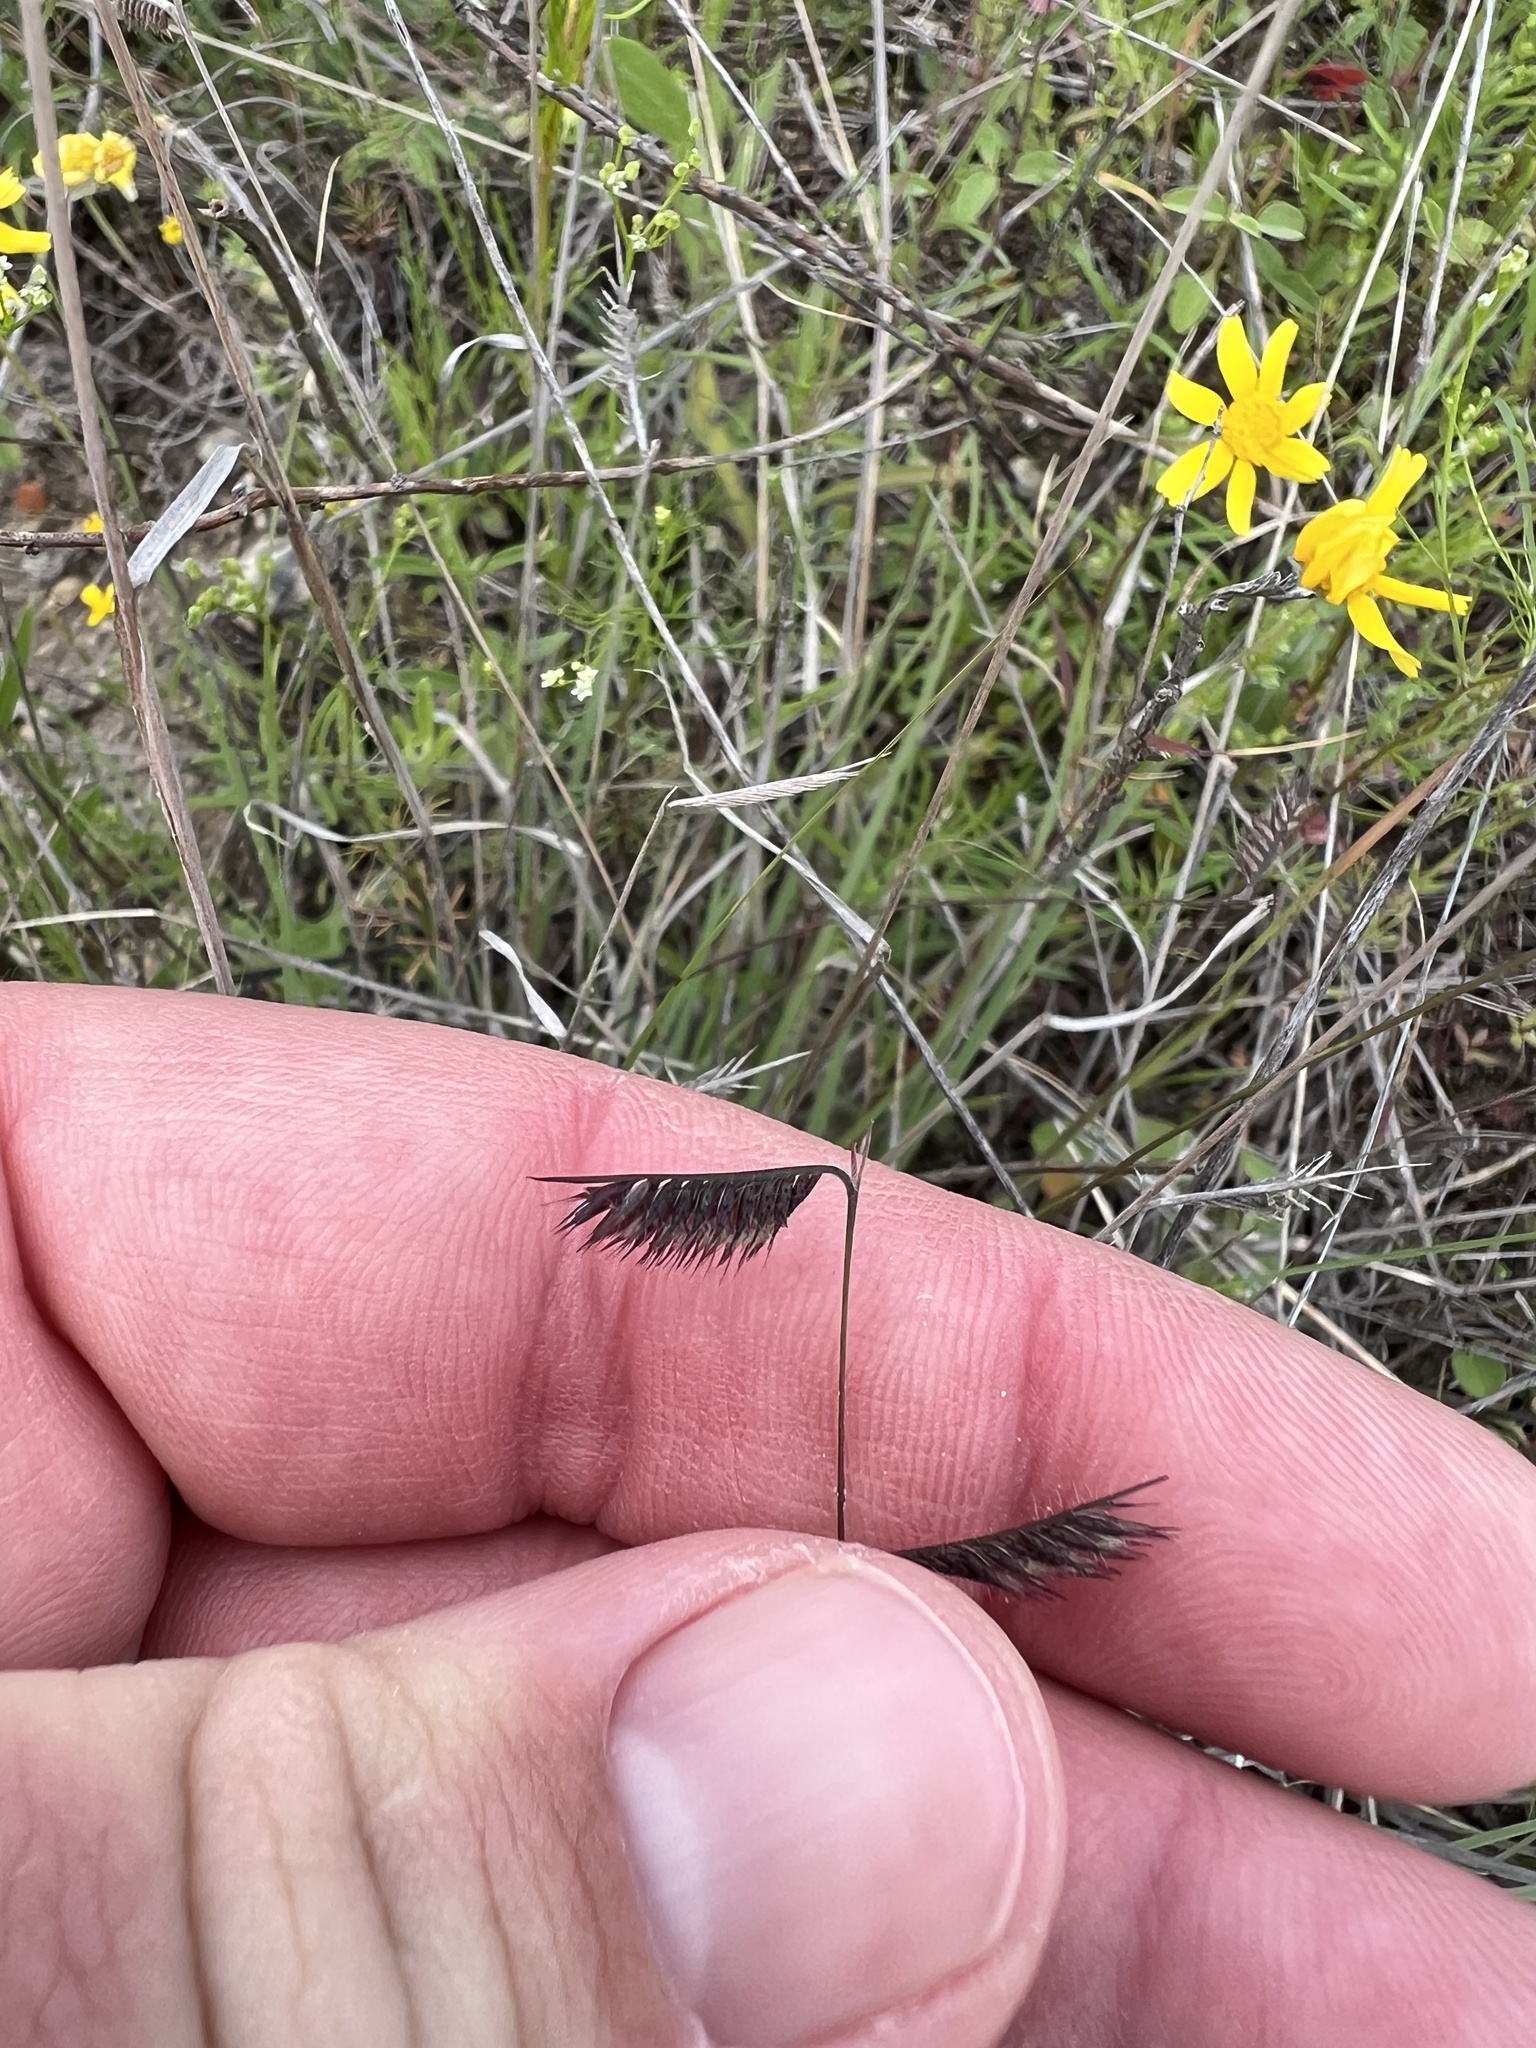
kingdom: Plantae
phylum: Tracheophyta
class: Liliopsida
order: Poales
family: Poaceae
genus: Bouteloua
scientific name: Bouteloua hirsuta
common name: Hairy grama
